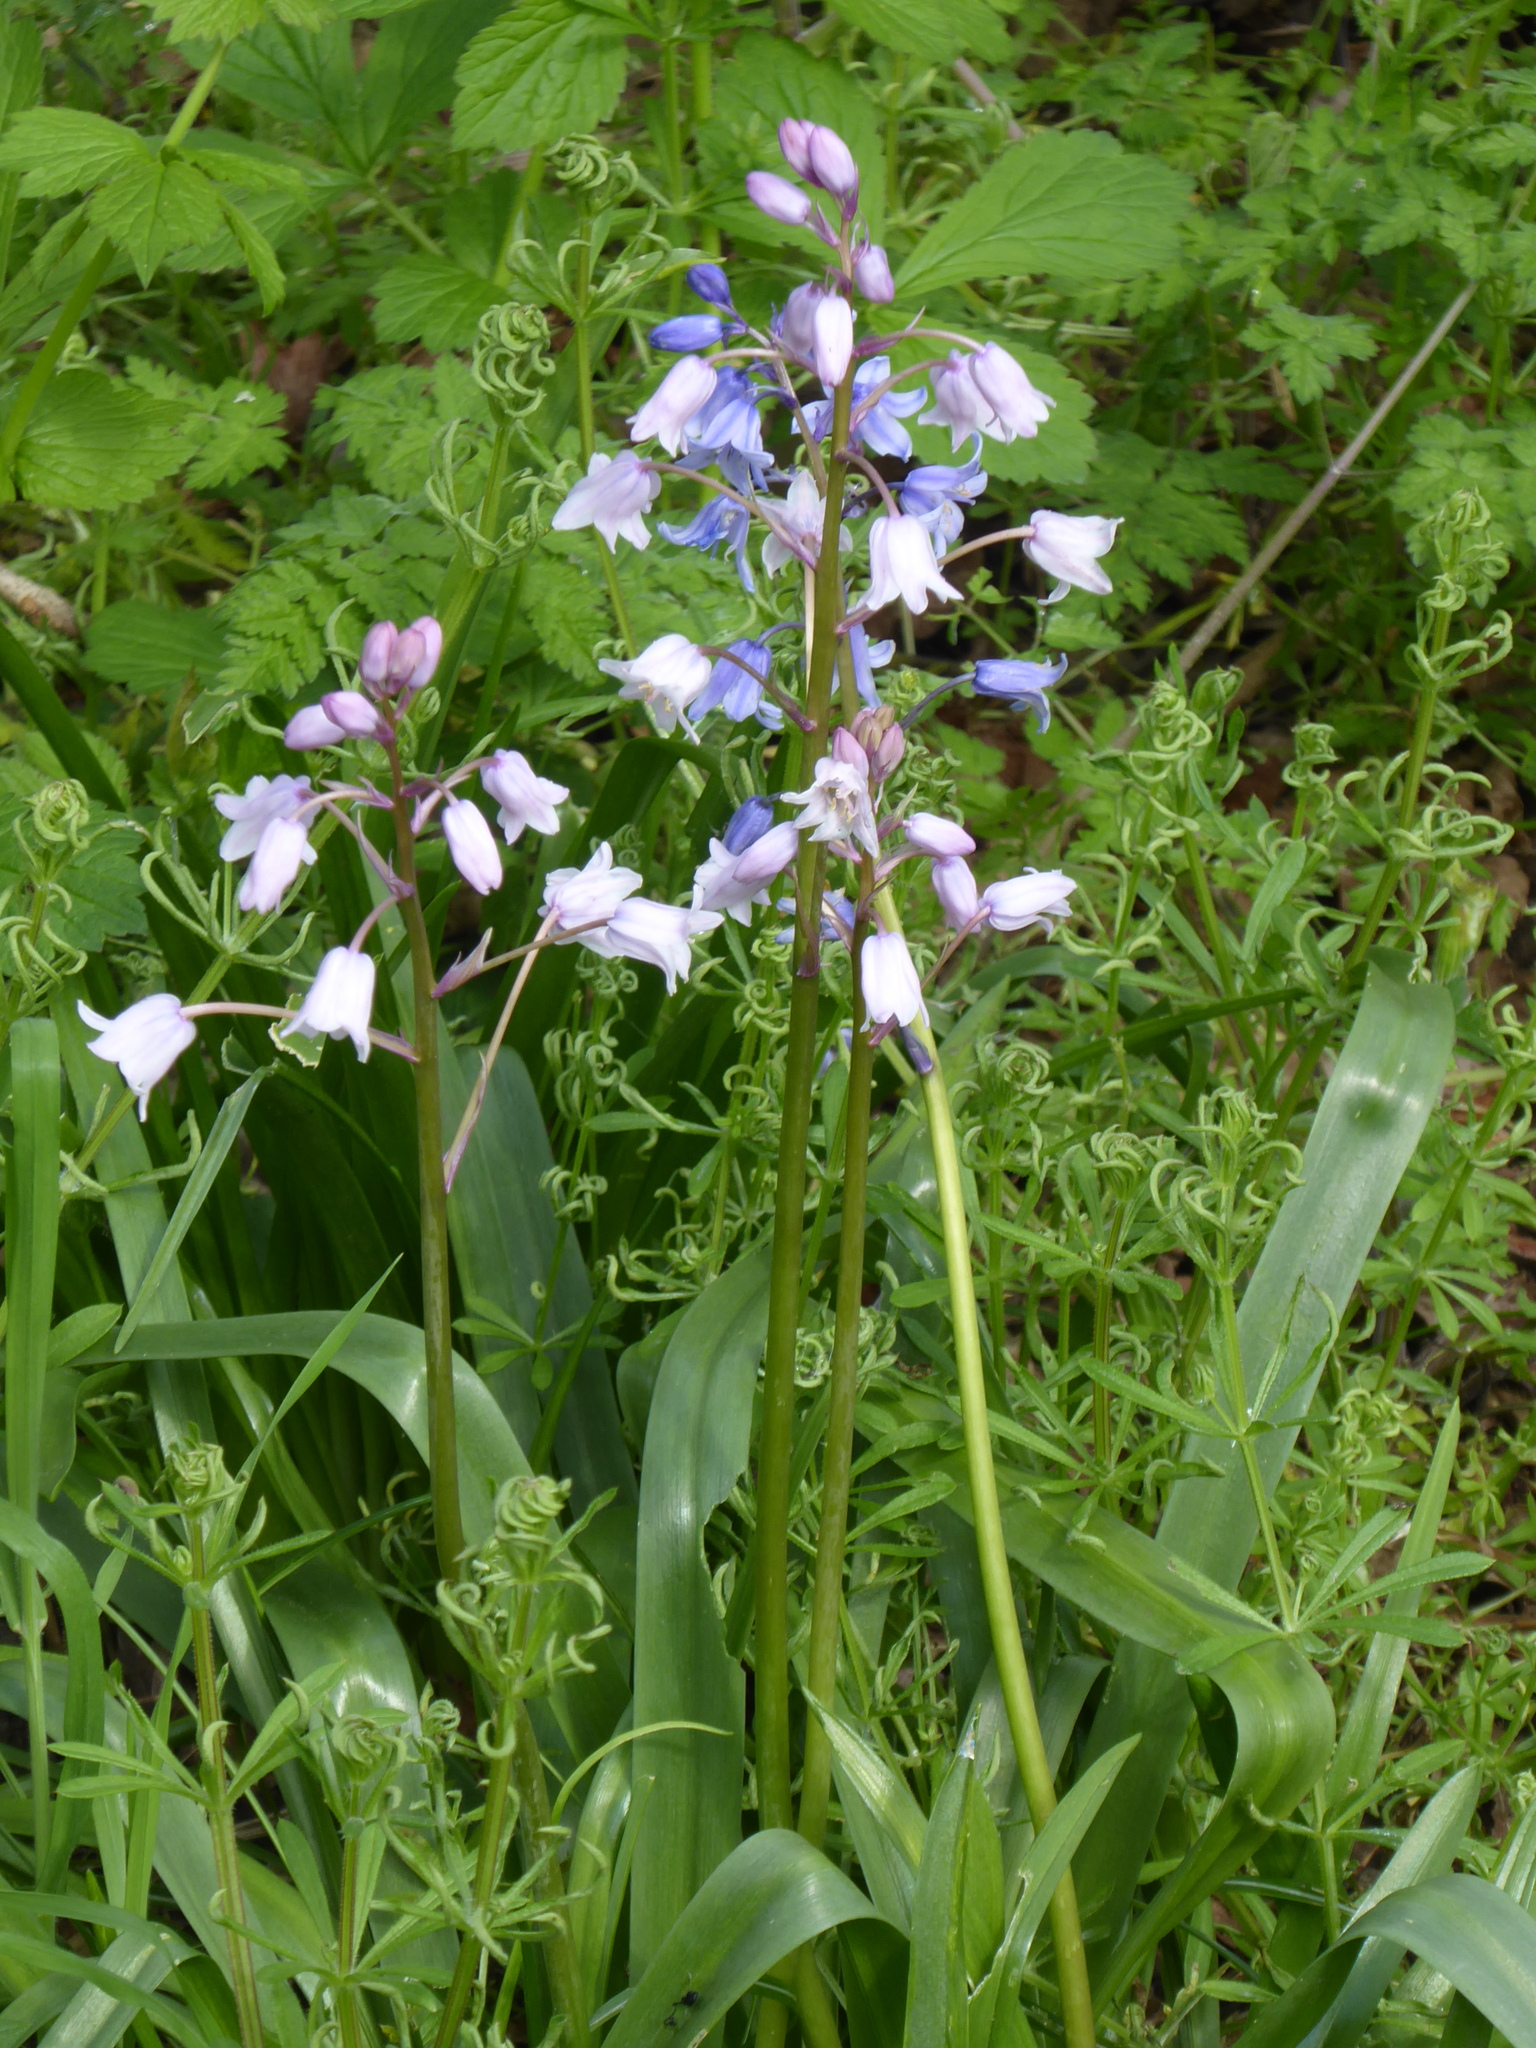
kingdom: Plantae
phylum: Tracheophyta
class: Liliopsida
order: Asparagales
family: Asparagaceae
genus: Hyacinthoides
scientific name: Hyacinthoides massartiana
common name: Hyacinthoides
